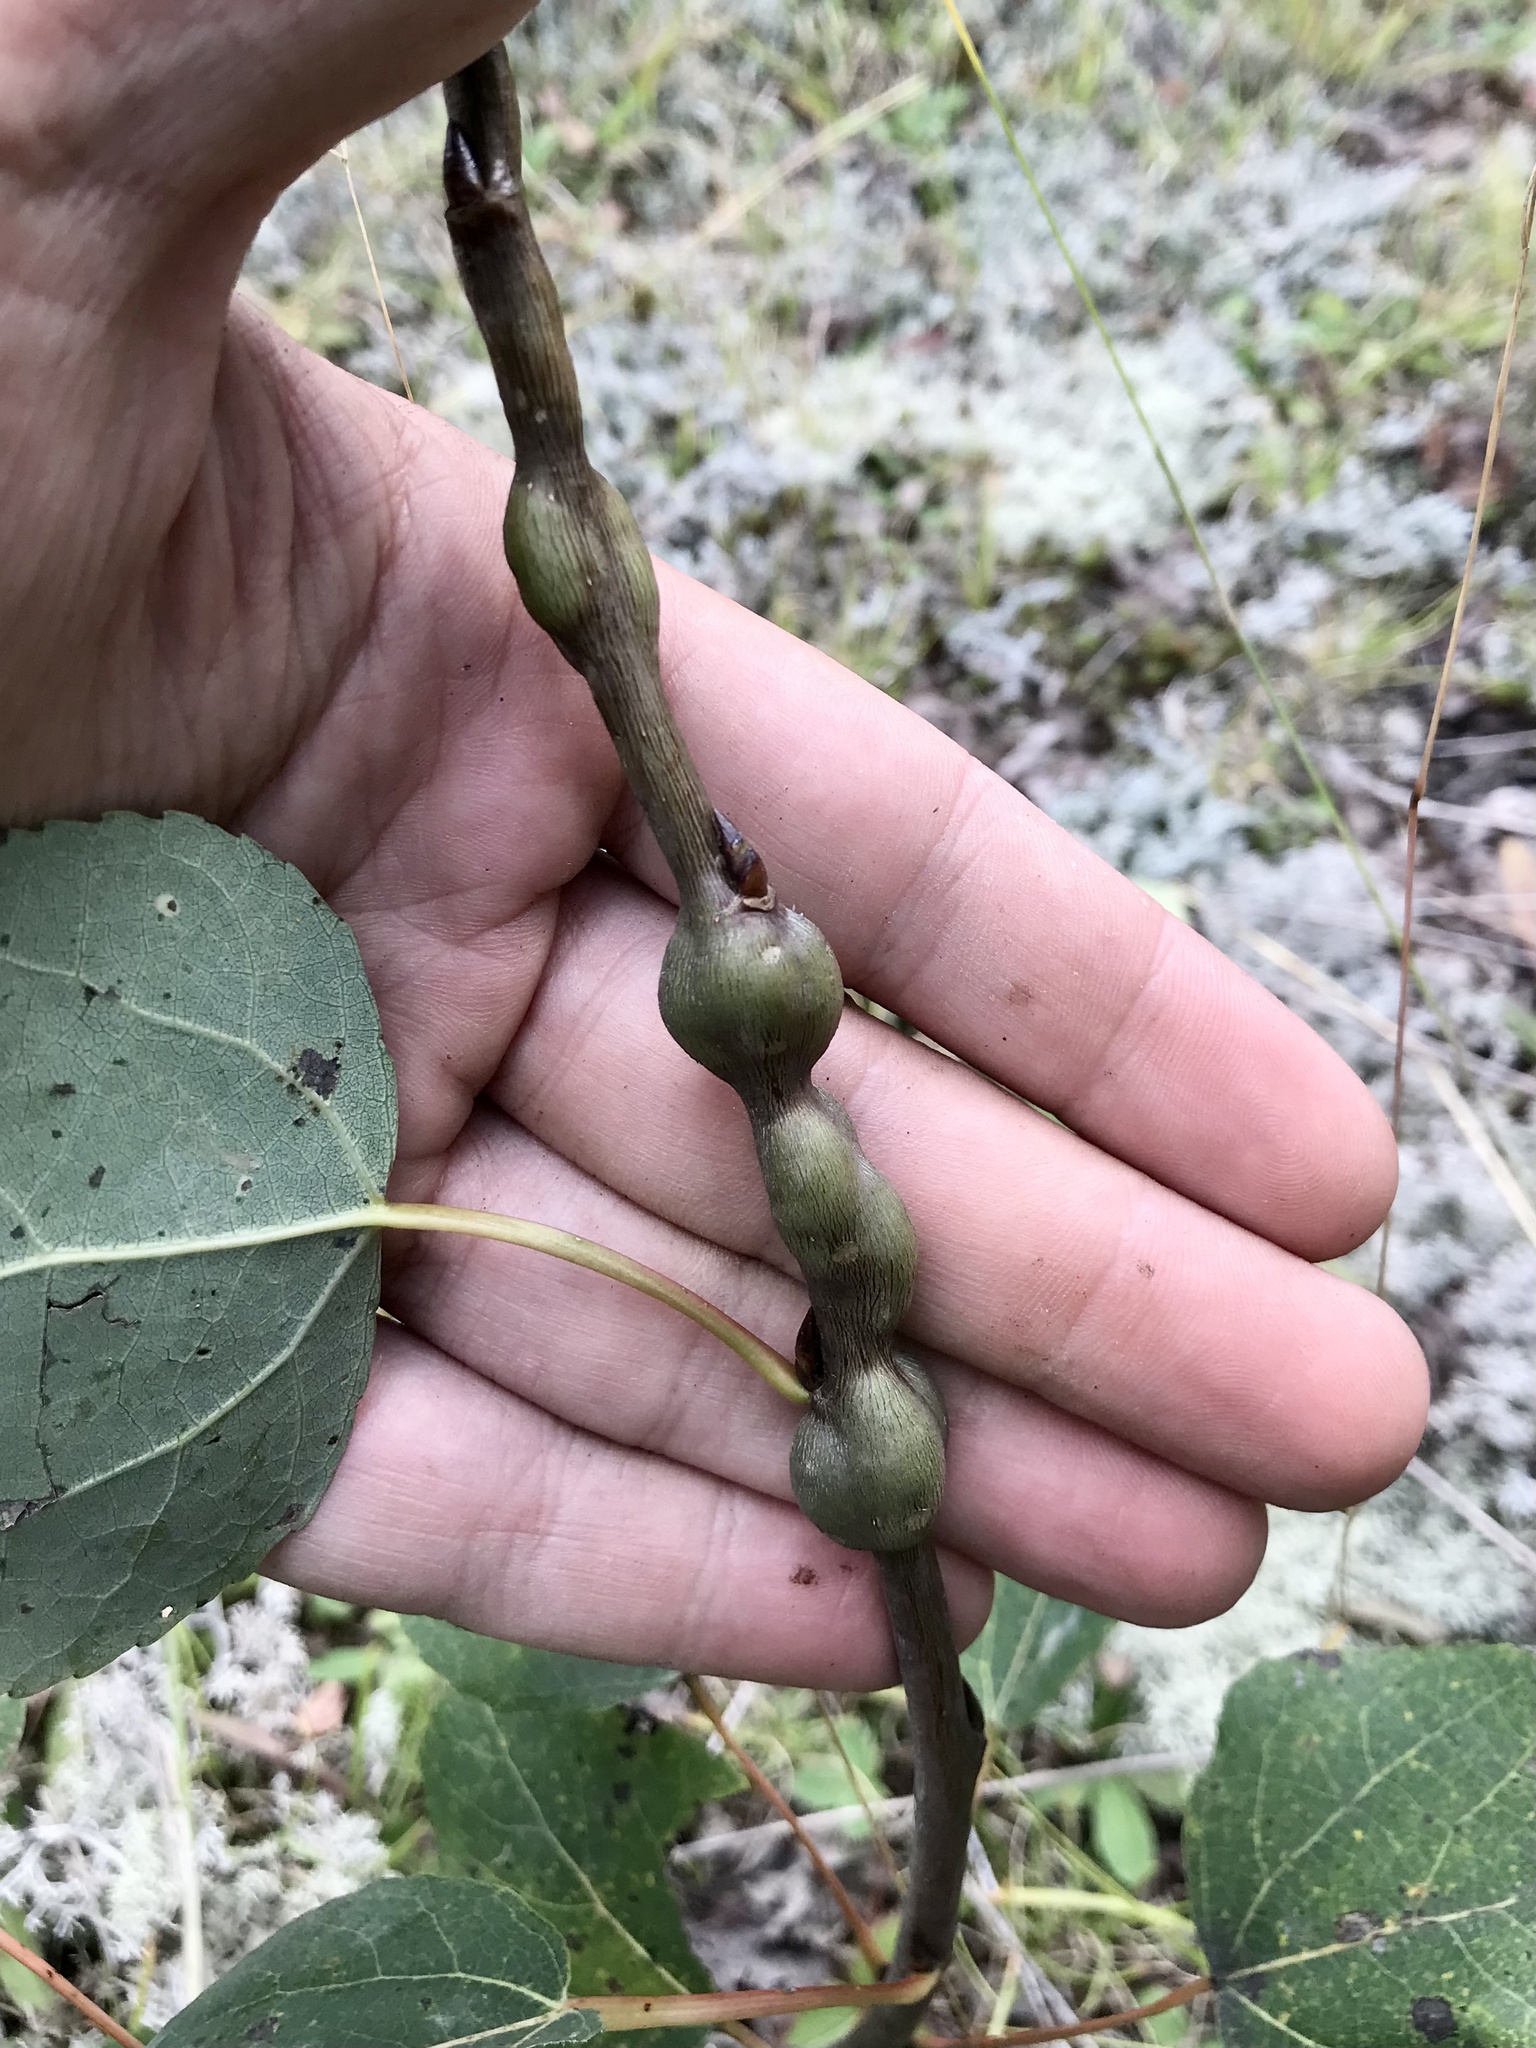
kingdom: Animalia
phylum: Arthropoda
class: Insecta
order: Diptera
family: Agromyzidae
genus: Euhexomyza
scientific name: Euhexomyza schineri
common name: Poplar twiggall fly
